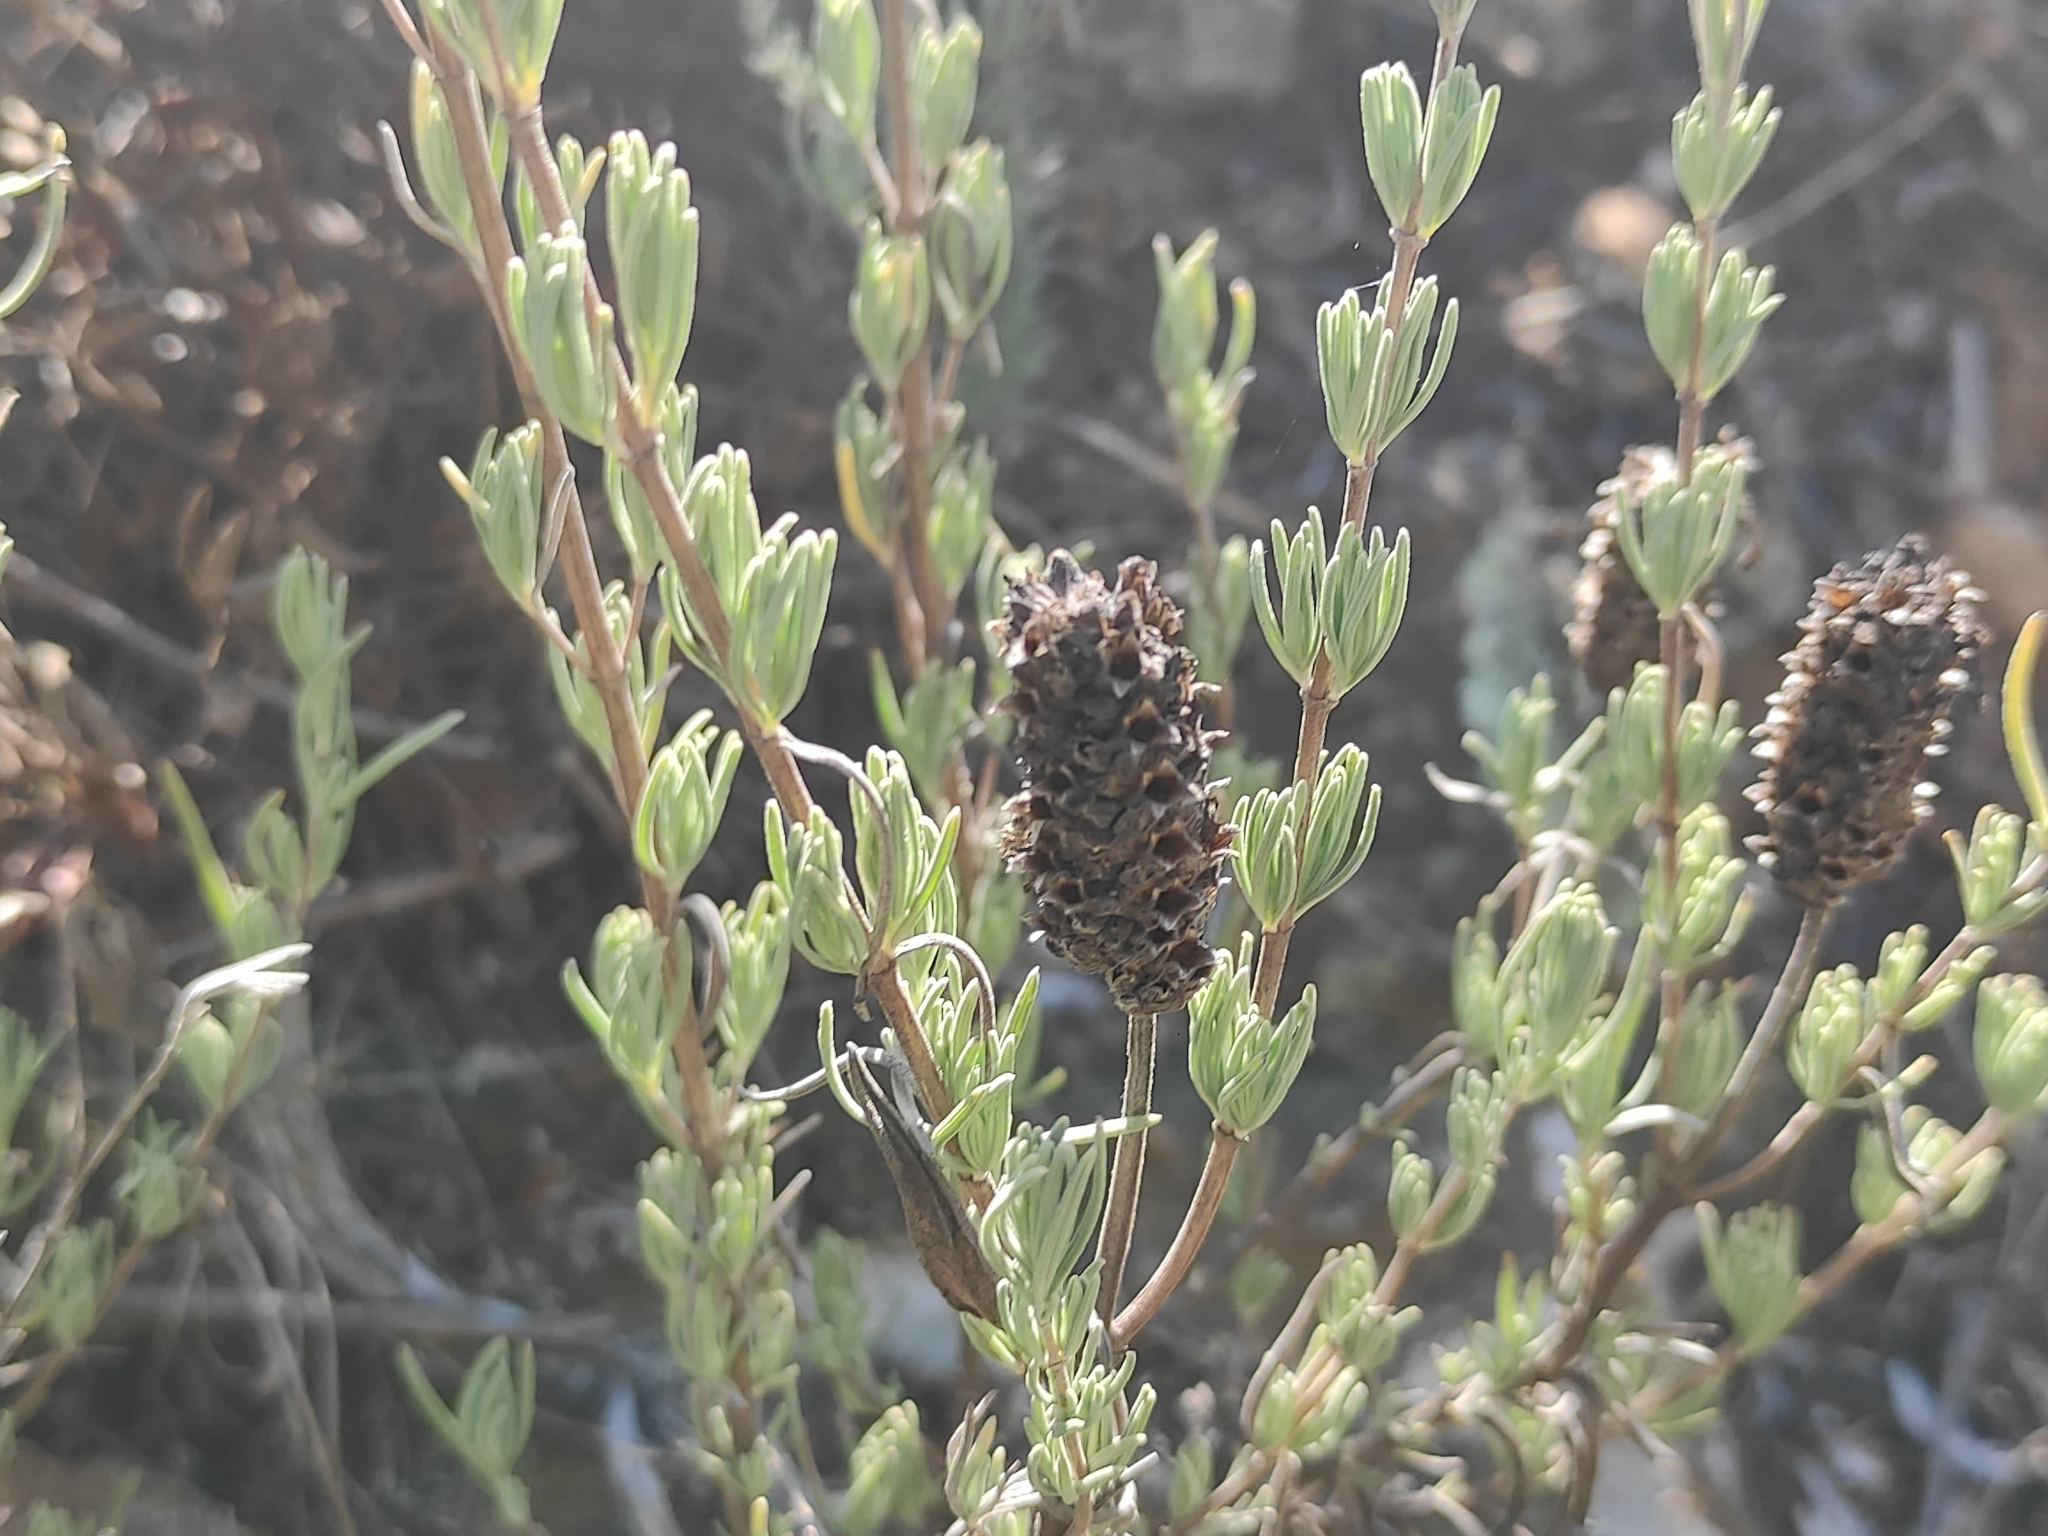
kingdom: Plantae
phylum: Tracheophyta
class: Magnoliopsida
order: Lamiales
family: Lamiaceae
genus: Lavandula
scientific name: Lavandula stoechas
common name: French lavender
